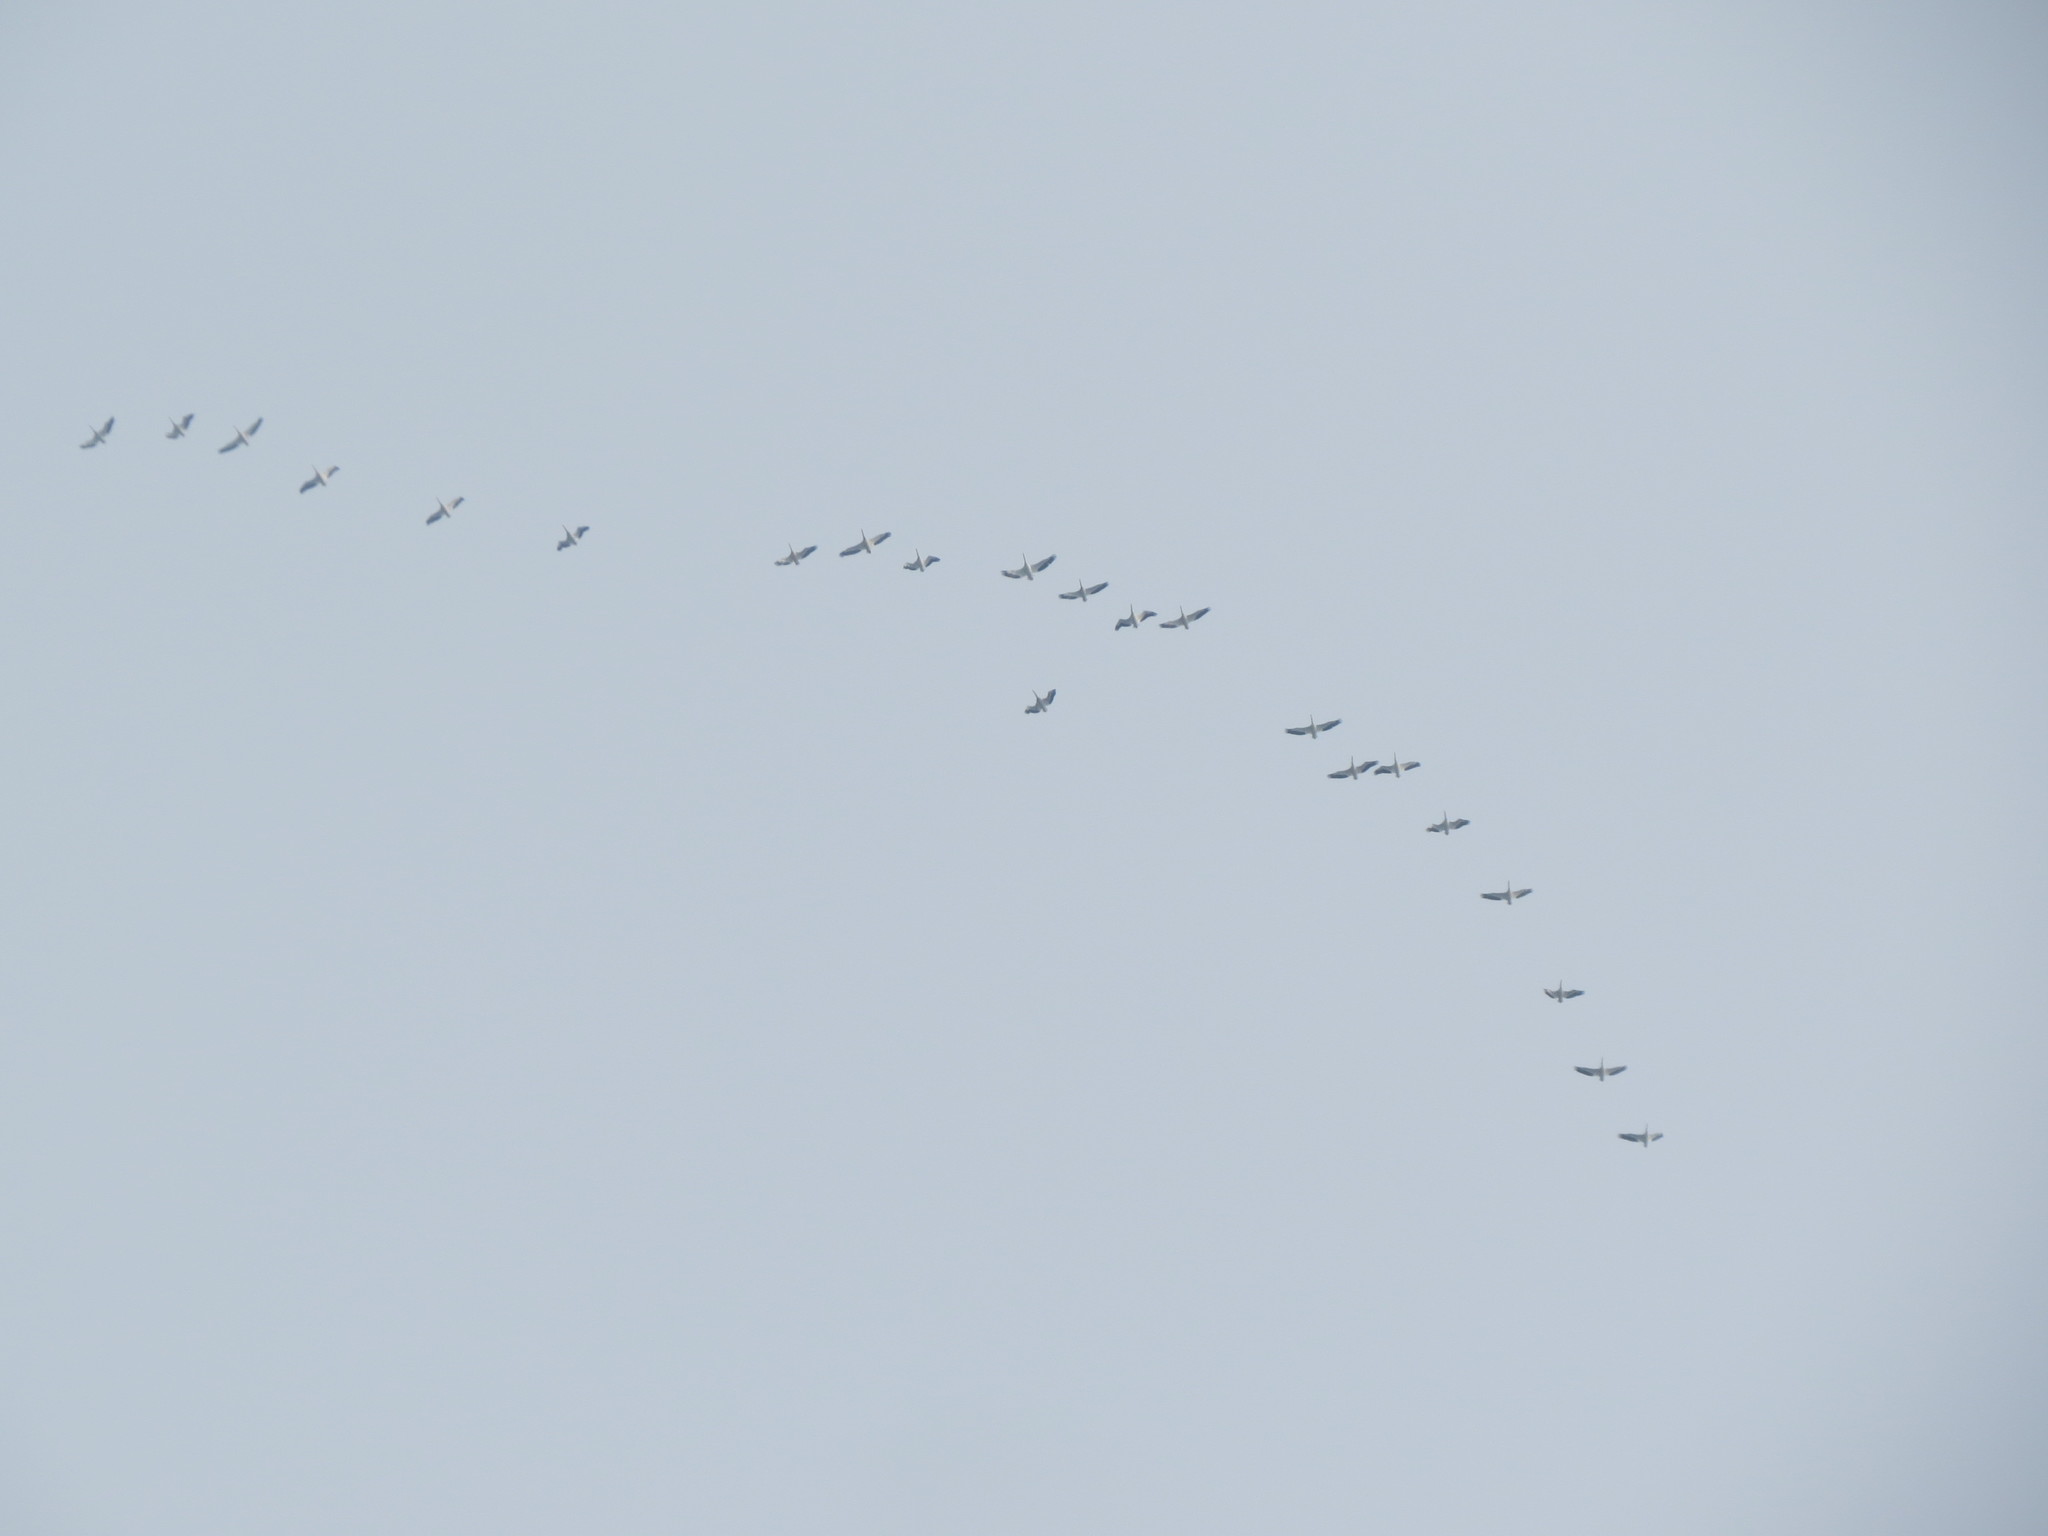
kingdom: Animalia
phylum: Chordata
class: Aves
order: Pelecaniformes
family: Pelecanidae
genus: Pelecanus
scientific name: Pelecanus erythrorhynchos
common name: American white pelican
